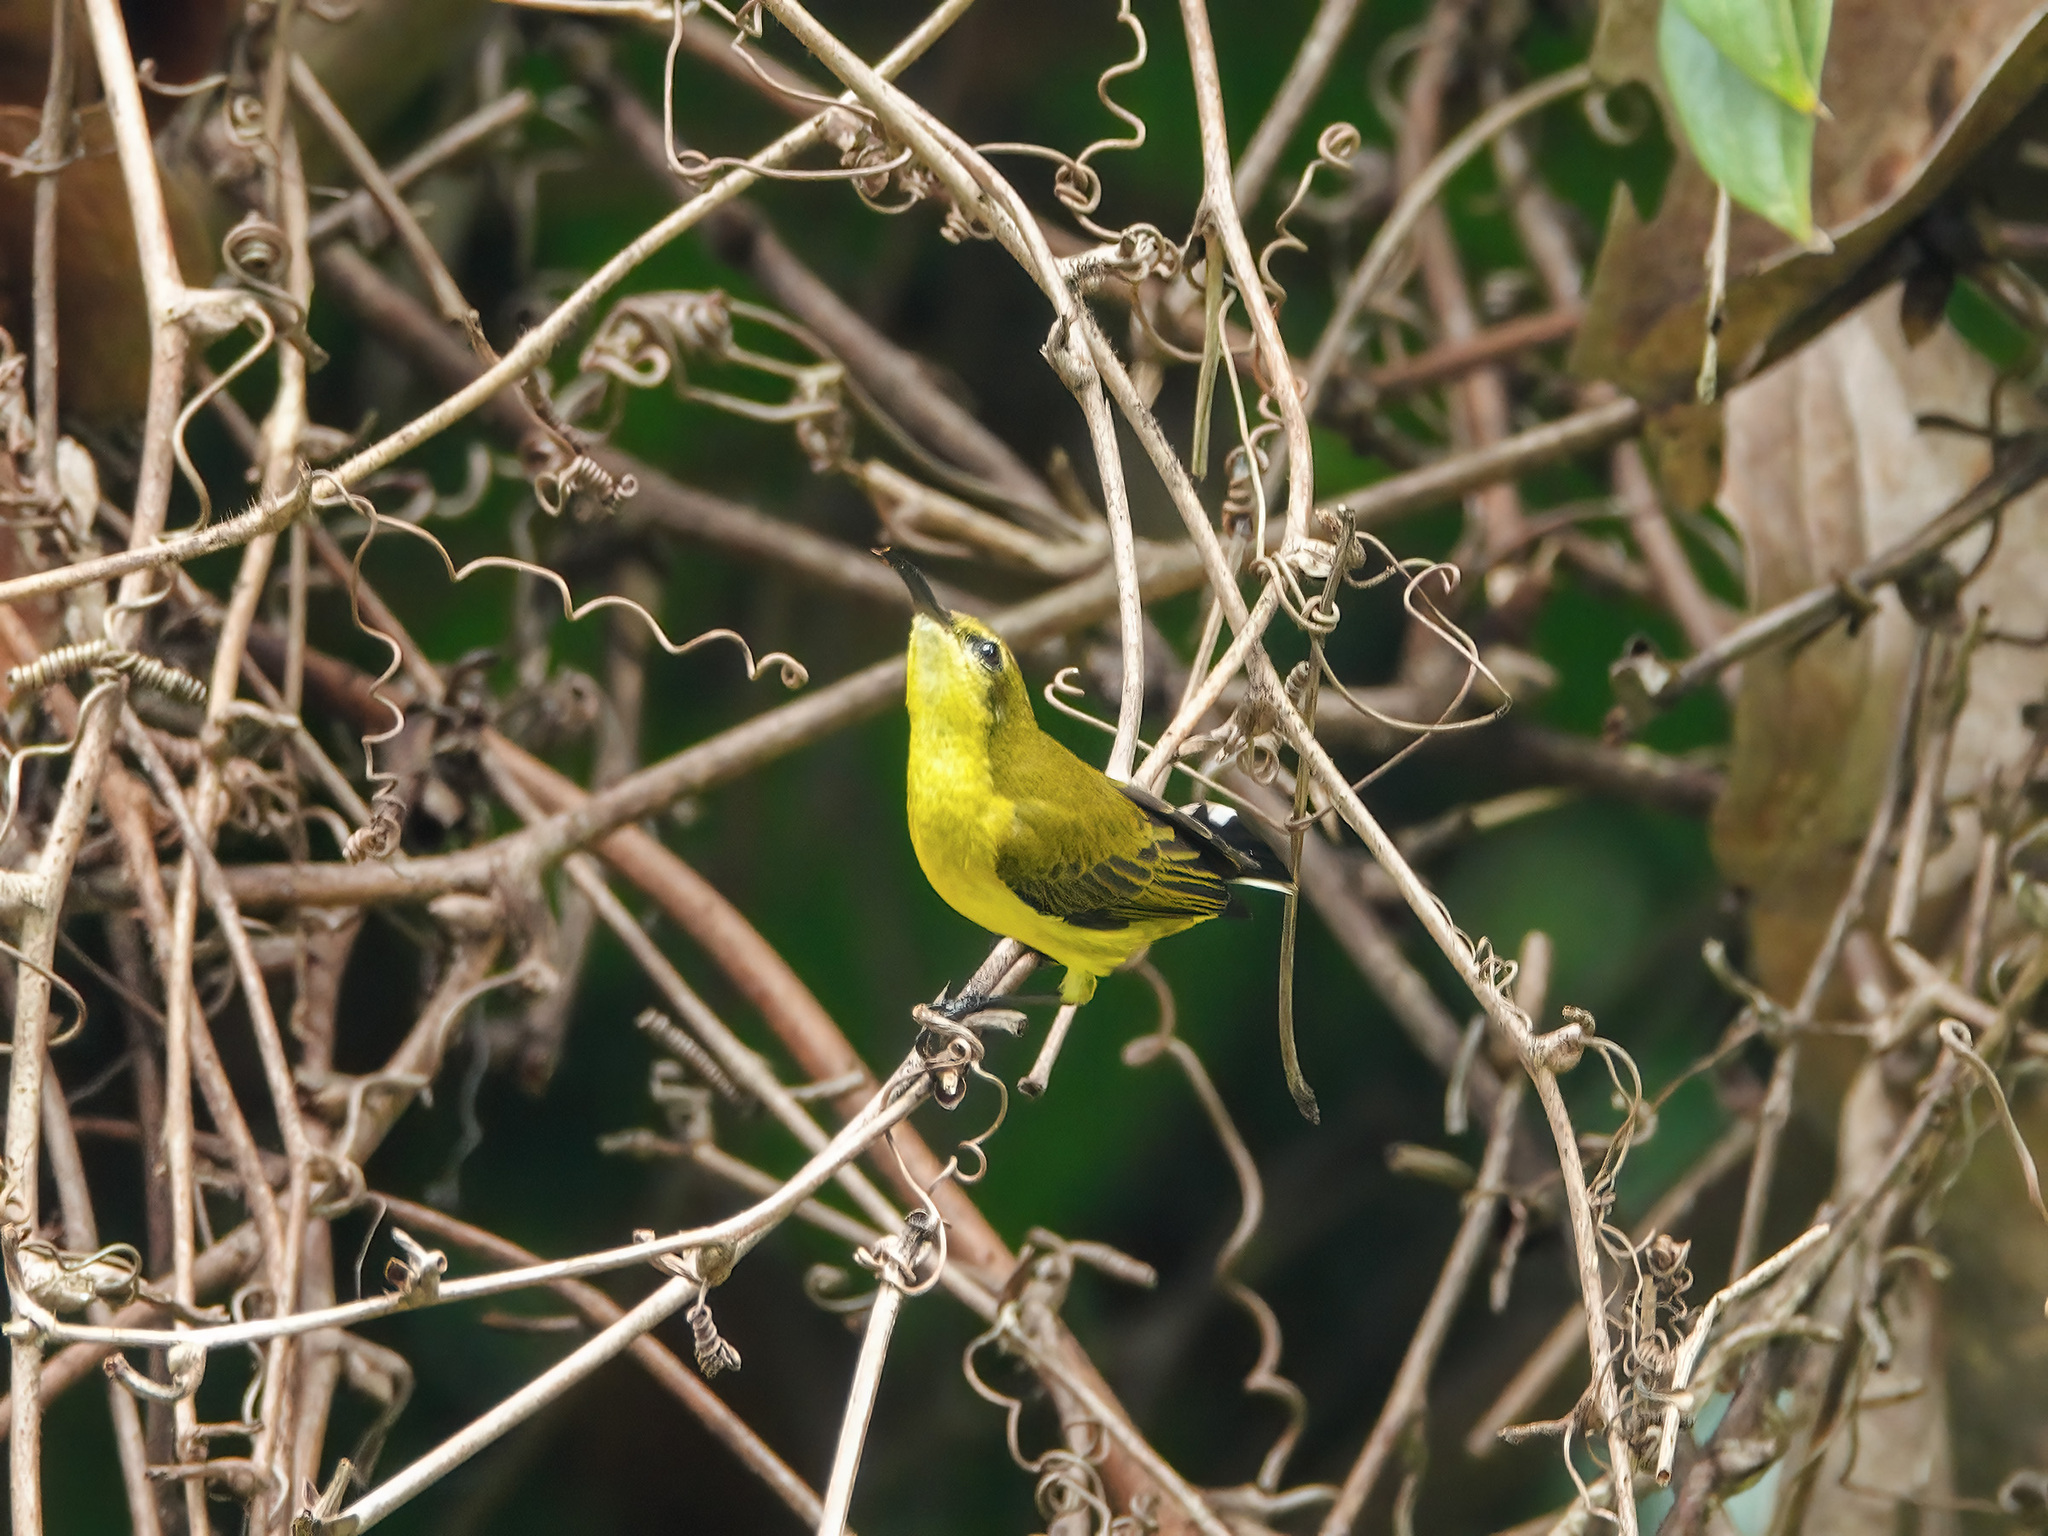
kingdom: Animalia
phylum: Chordata
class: Aves
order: Passeriformes
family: Nectariniidae
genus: Cinnyris
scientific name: Cinnyris
